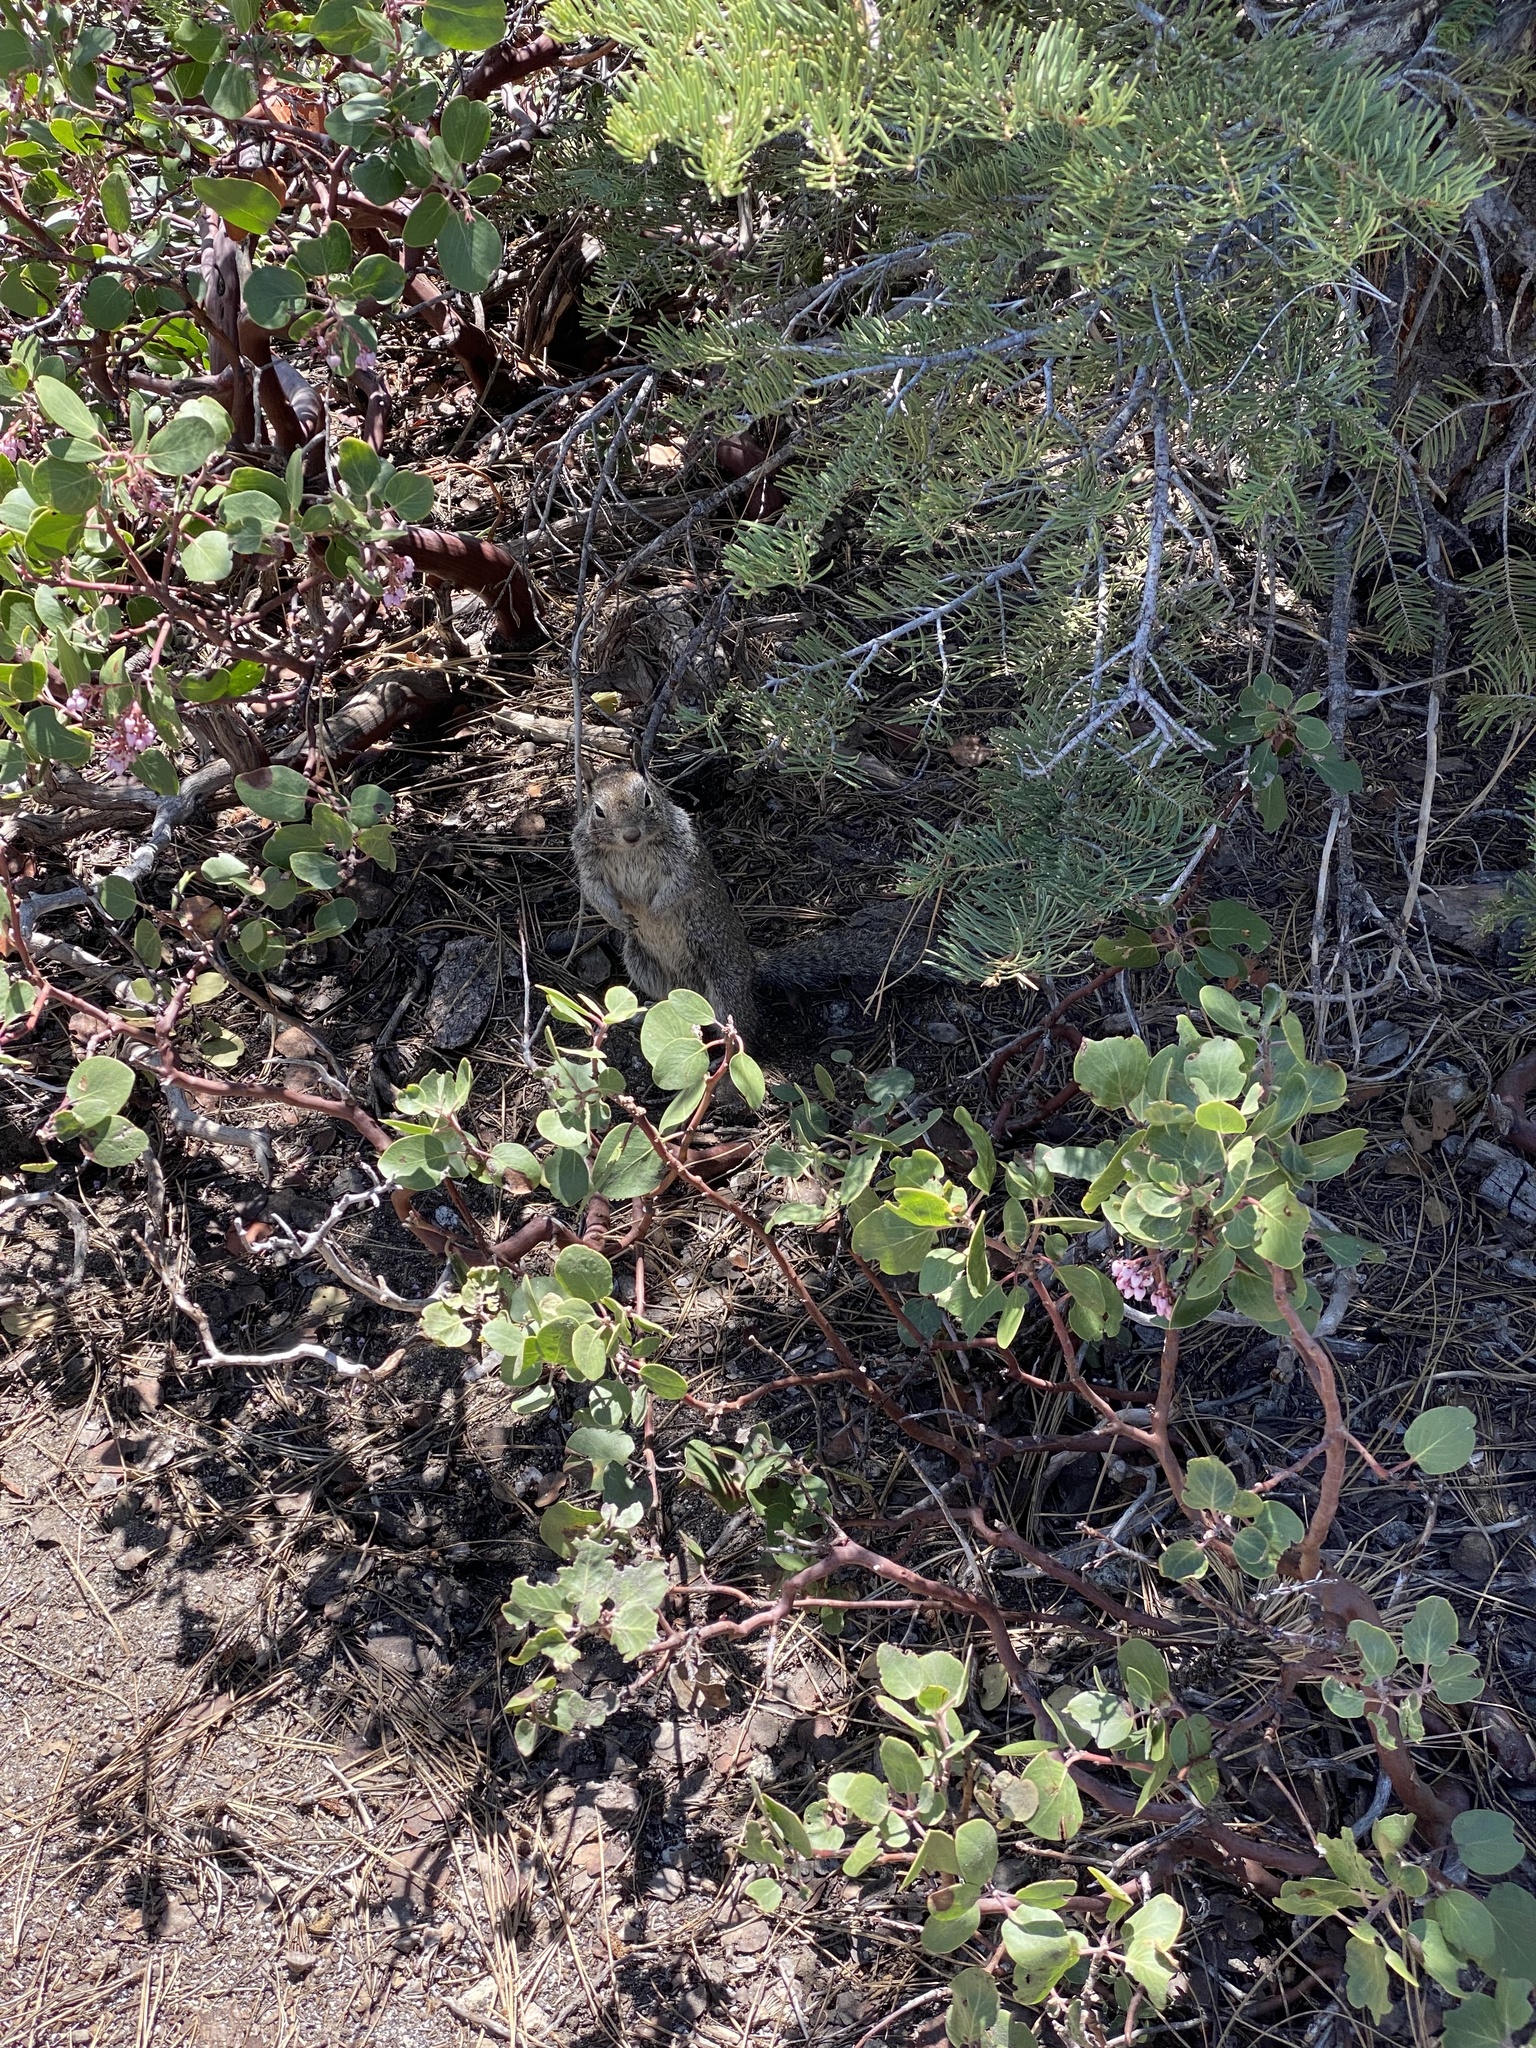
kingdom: Animalia
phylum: Chordata
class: Mammalia
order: Rodentia
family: Sciuridae
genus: Otospermophilus
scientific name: Otospermophilus beecheyi
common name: California ground squirrel
